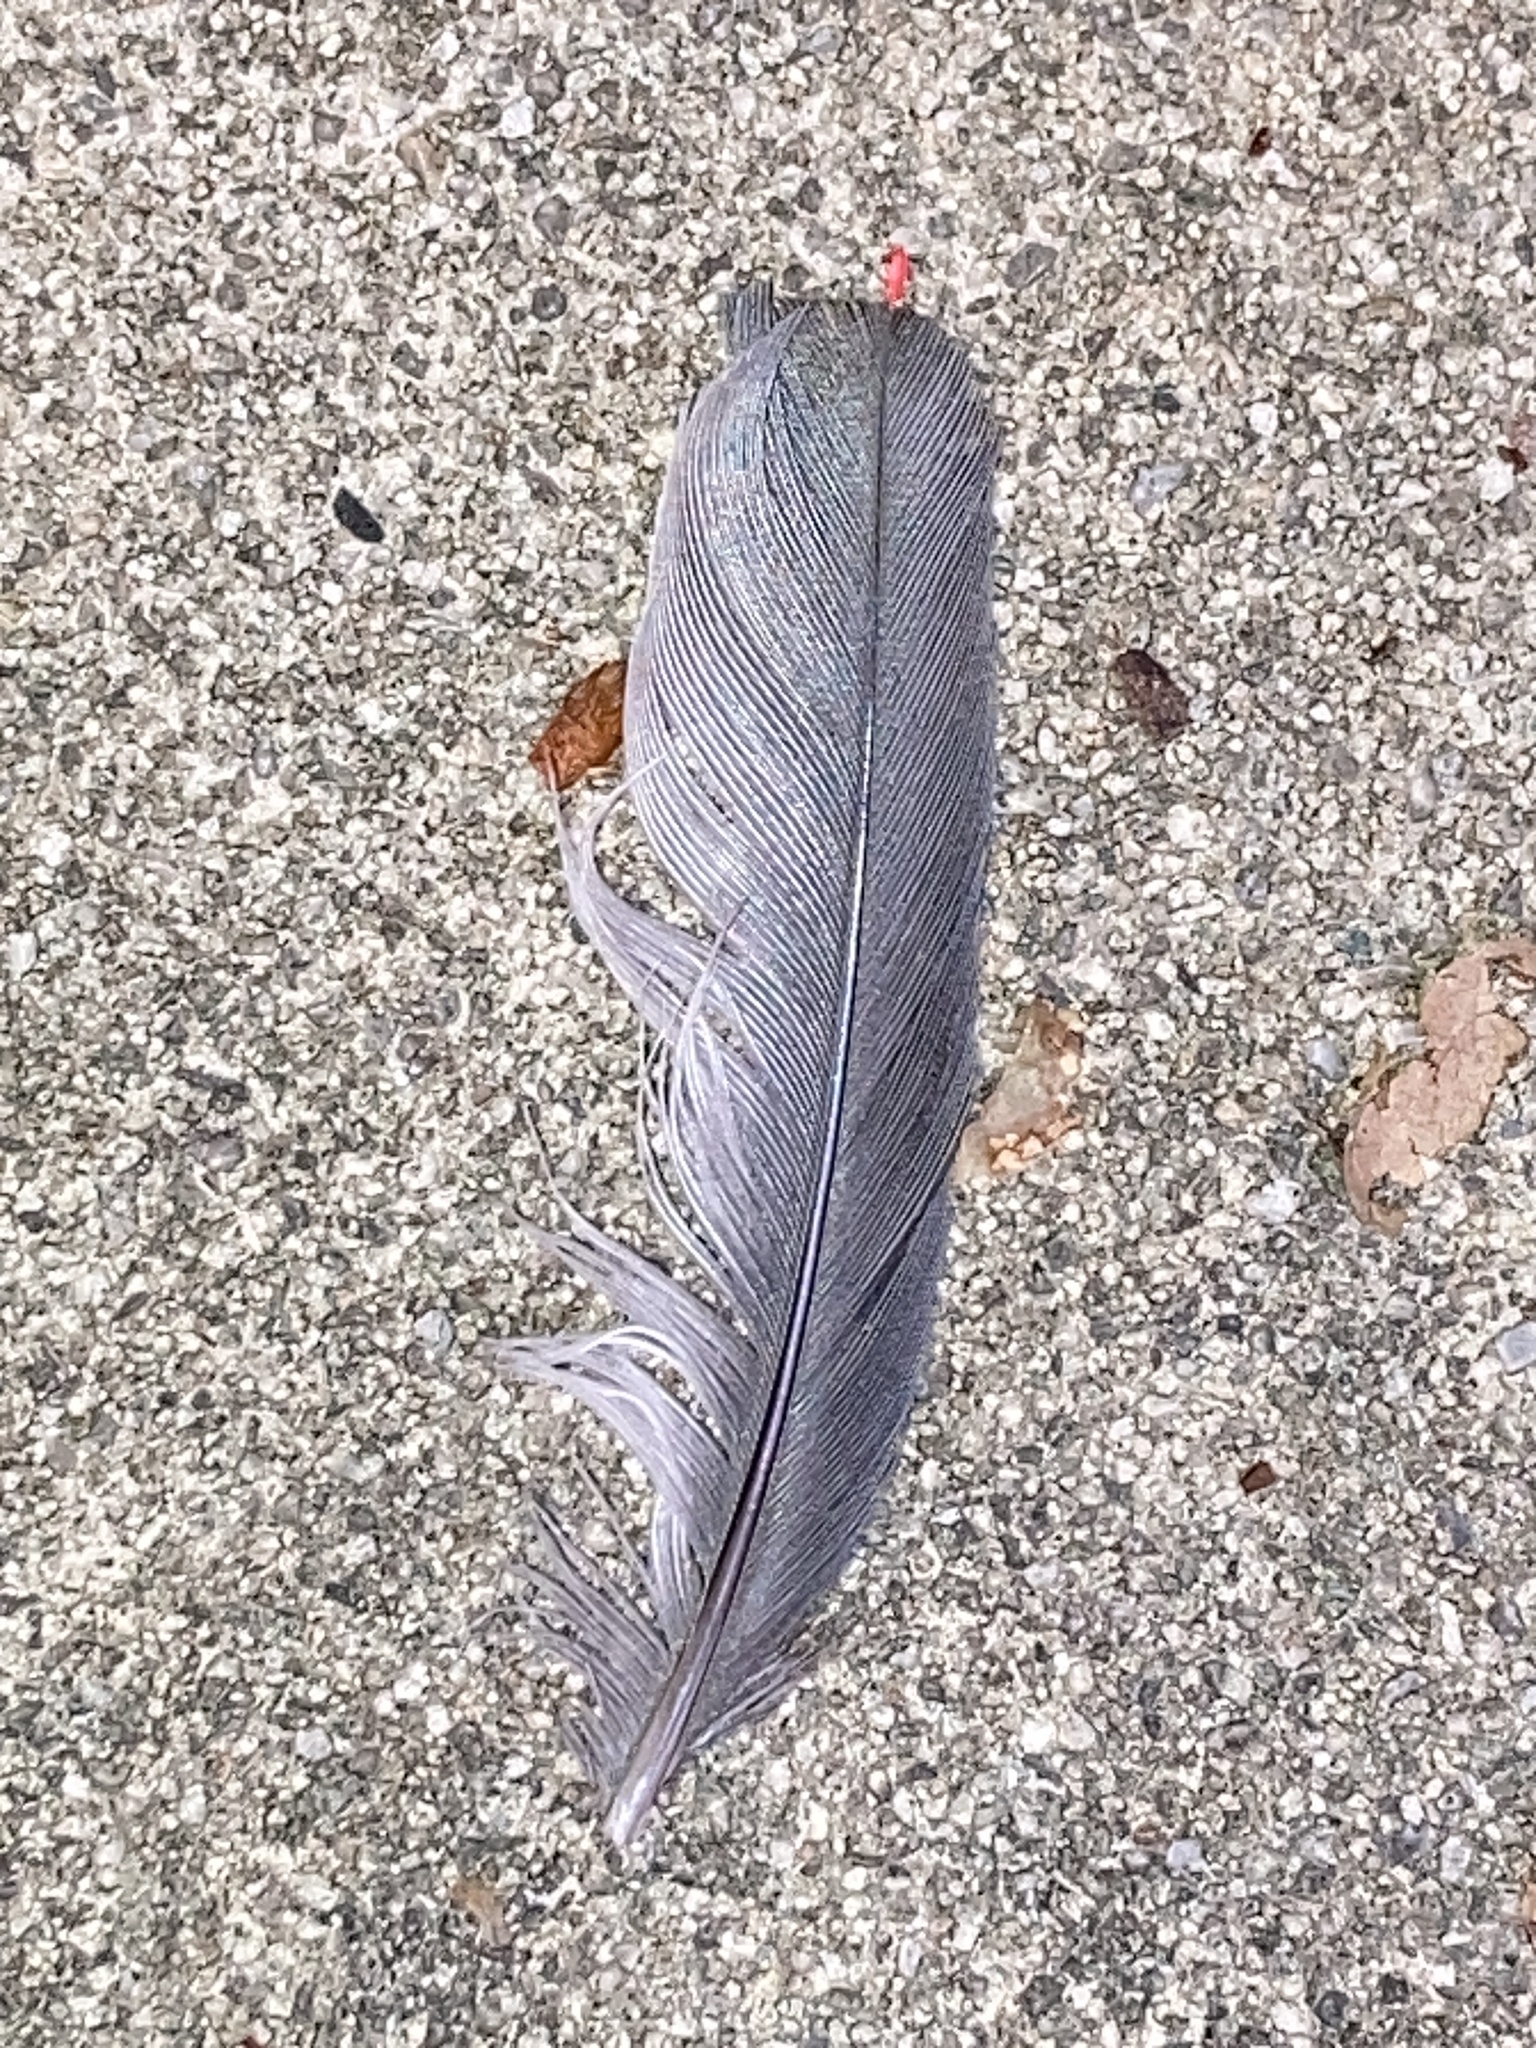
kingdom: Animalia
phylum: Chordata
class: Aves
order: Passeriformes
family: Bombycillidae
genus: Bombycilla
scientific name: Bombycilla cedrorum
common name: Cedar waxwing
